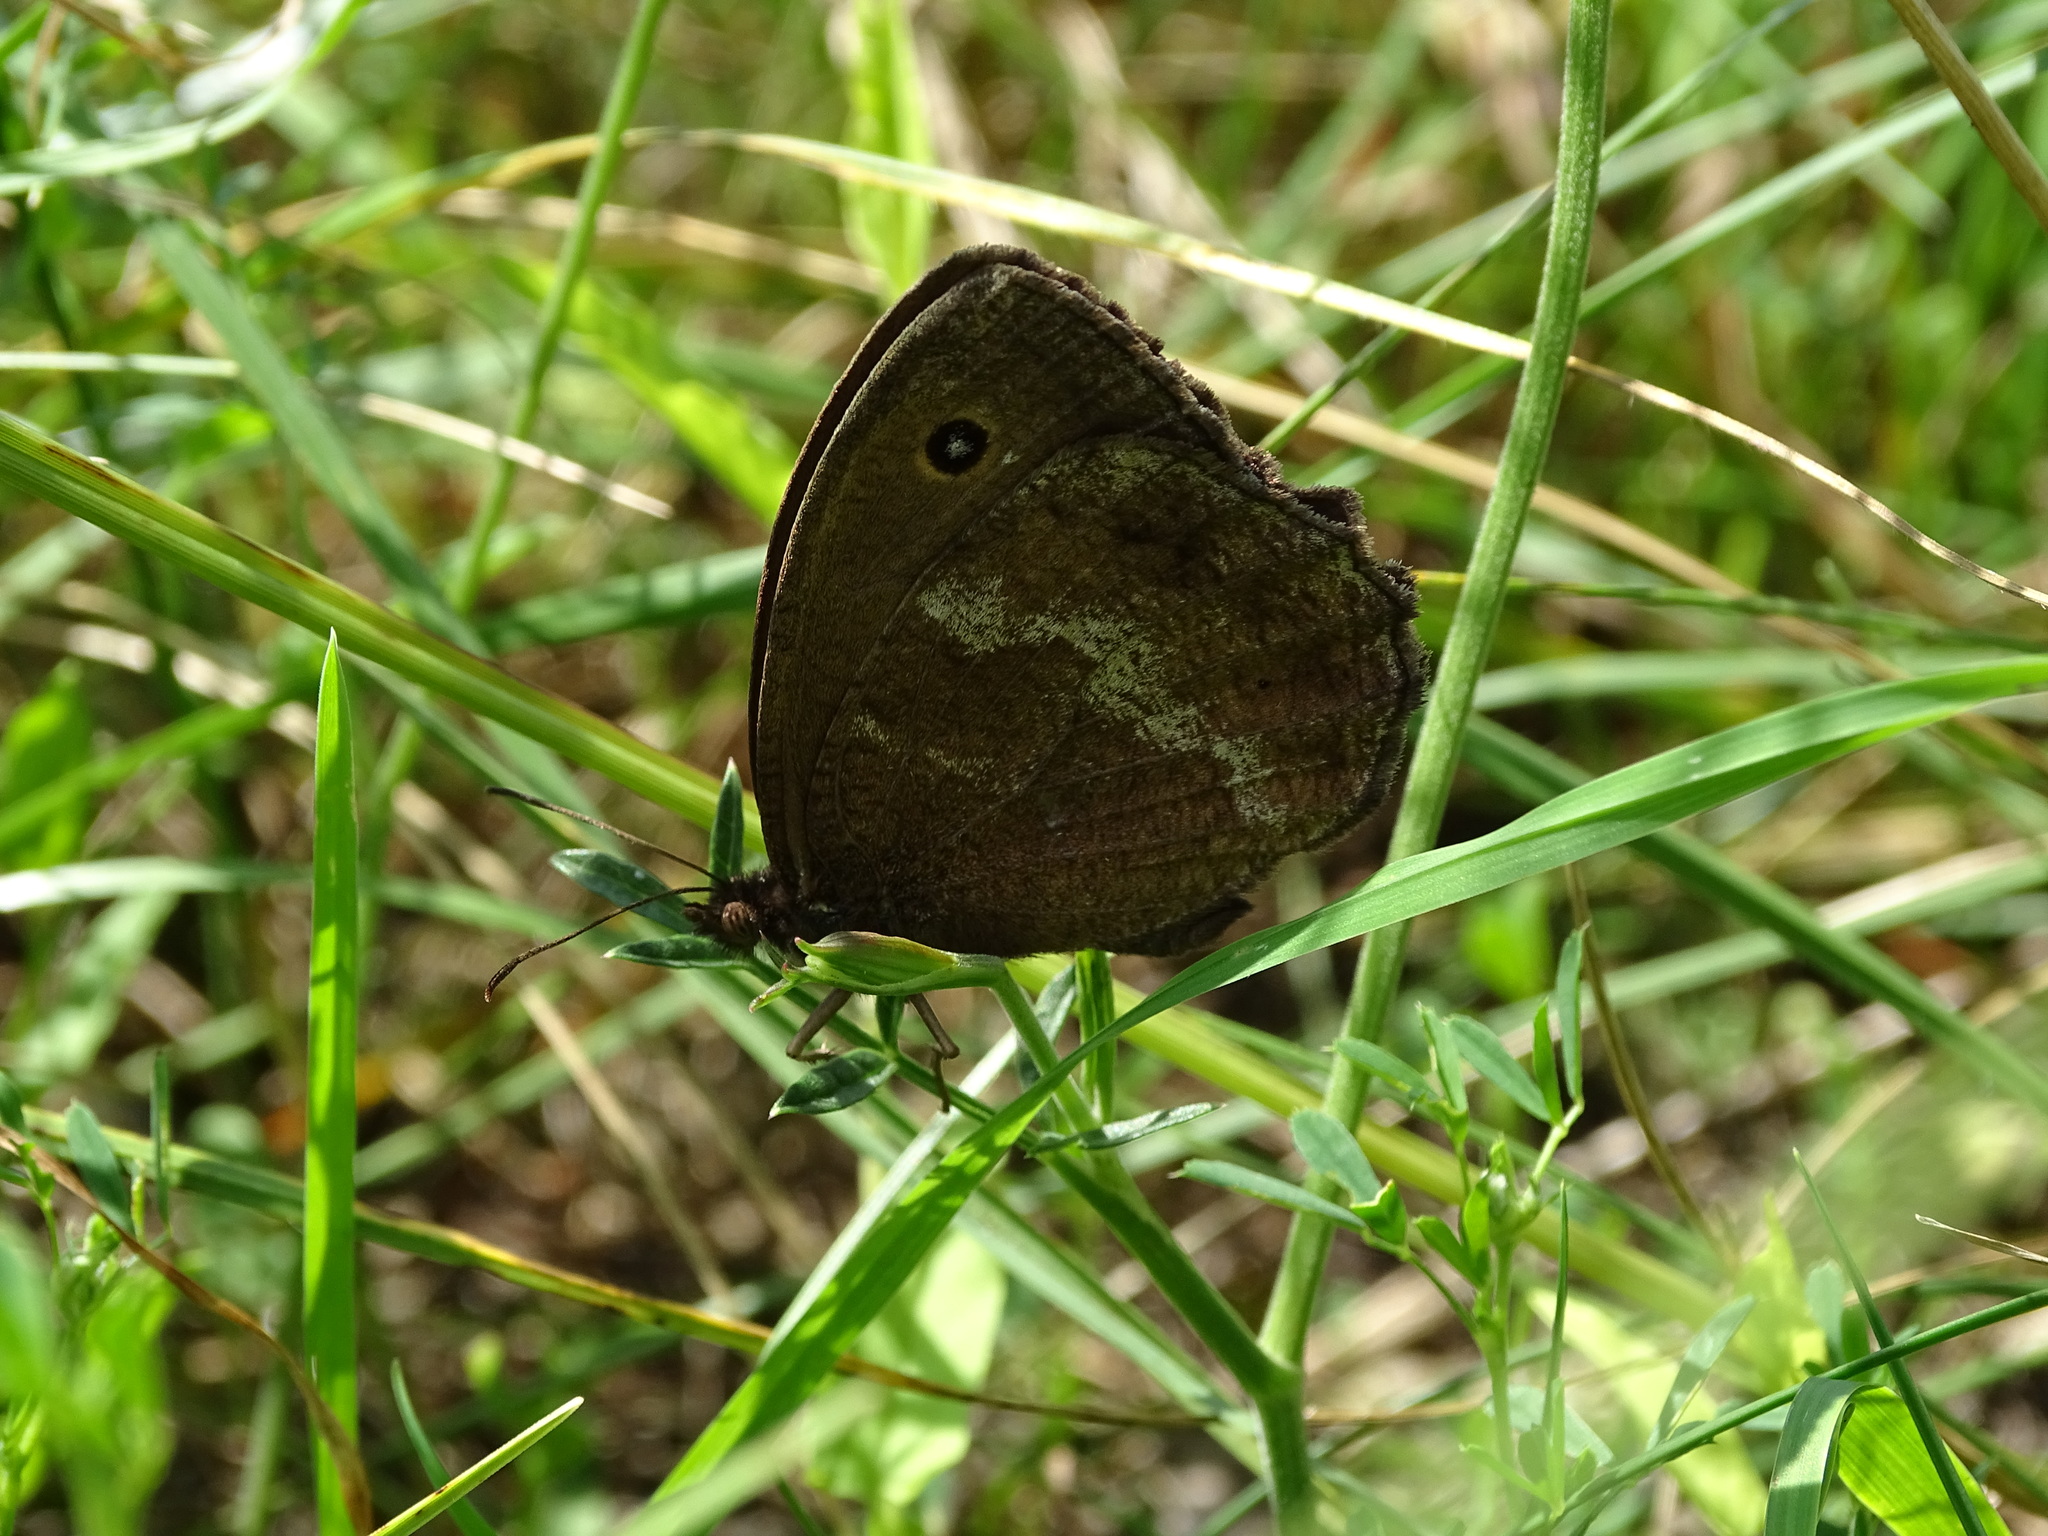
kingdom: Animalia
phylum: Arthropoda
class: Insecta
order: Lepidoptera
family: Nymphalidae
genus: Minois
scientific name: Minois dryas
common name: Dryad
